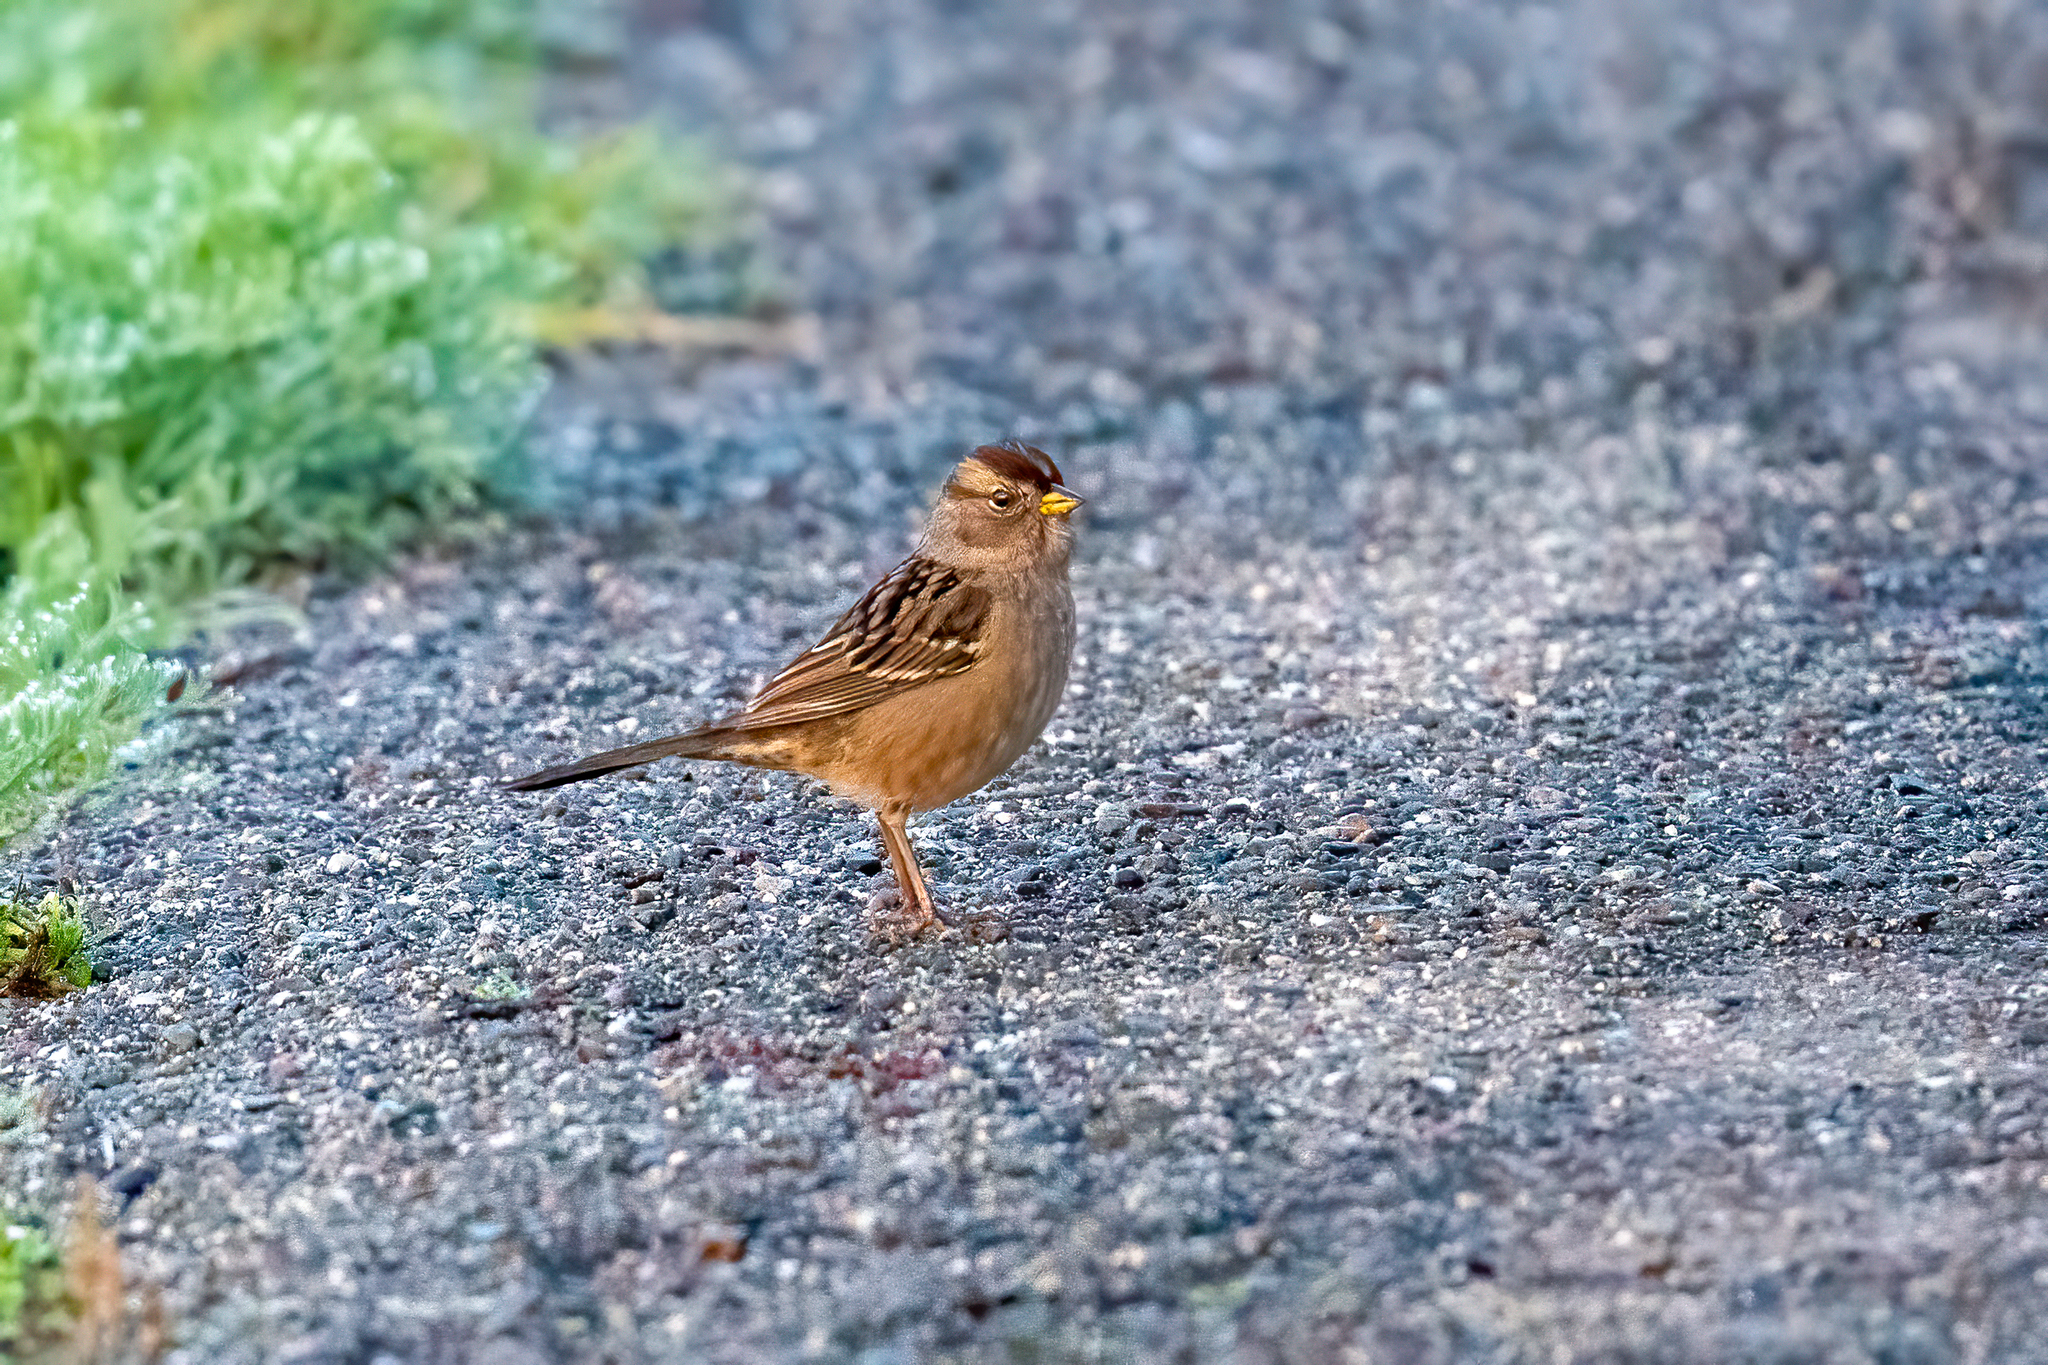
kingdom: Animalia
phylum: Chordata
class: Aves
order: Passeriformes
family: Passerellidae
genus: Zonotrichia
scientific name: Zonotrichia leucophrys
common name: White-crowned sparrow
